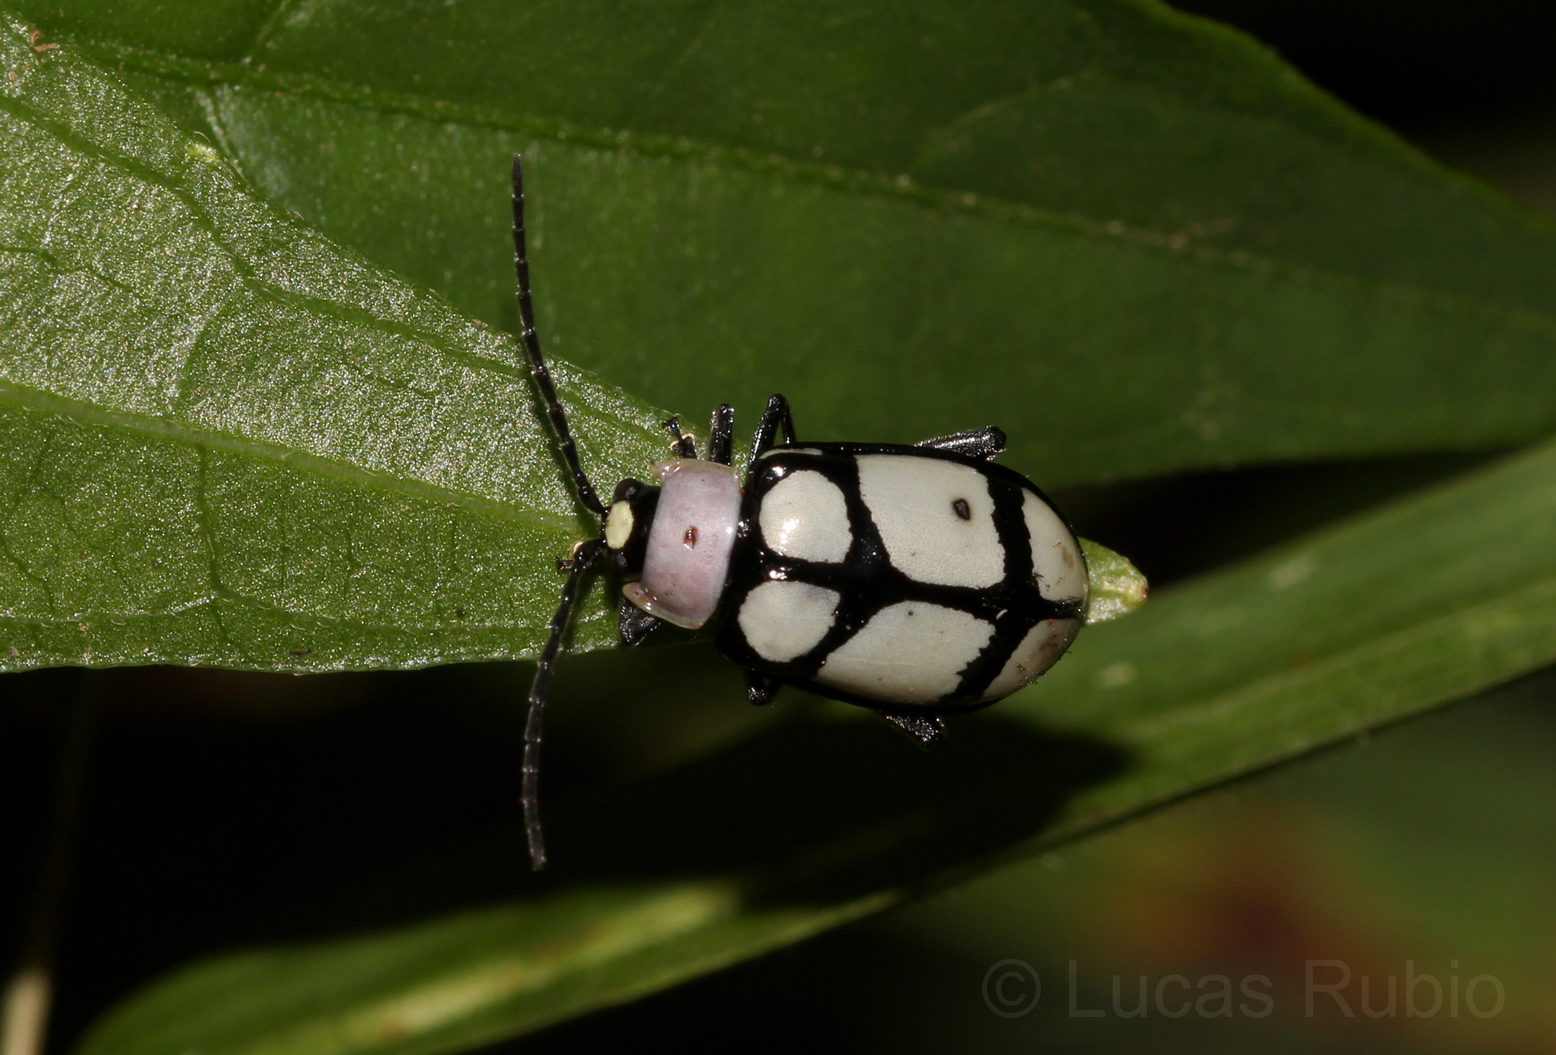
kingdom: Animalia
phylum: Arthropoda
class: Insecta
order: Coleoptera
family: Chrysomelidae
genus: Omophoita
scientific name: Omophoita
